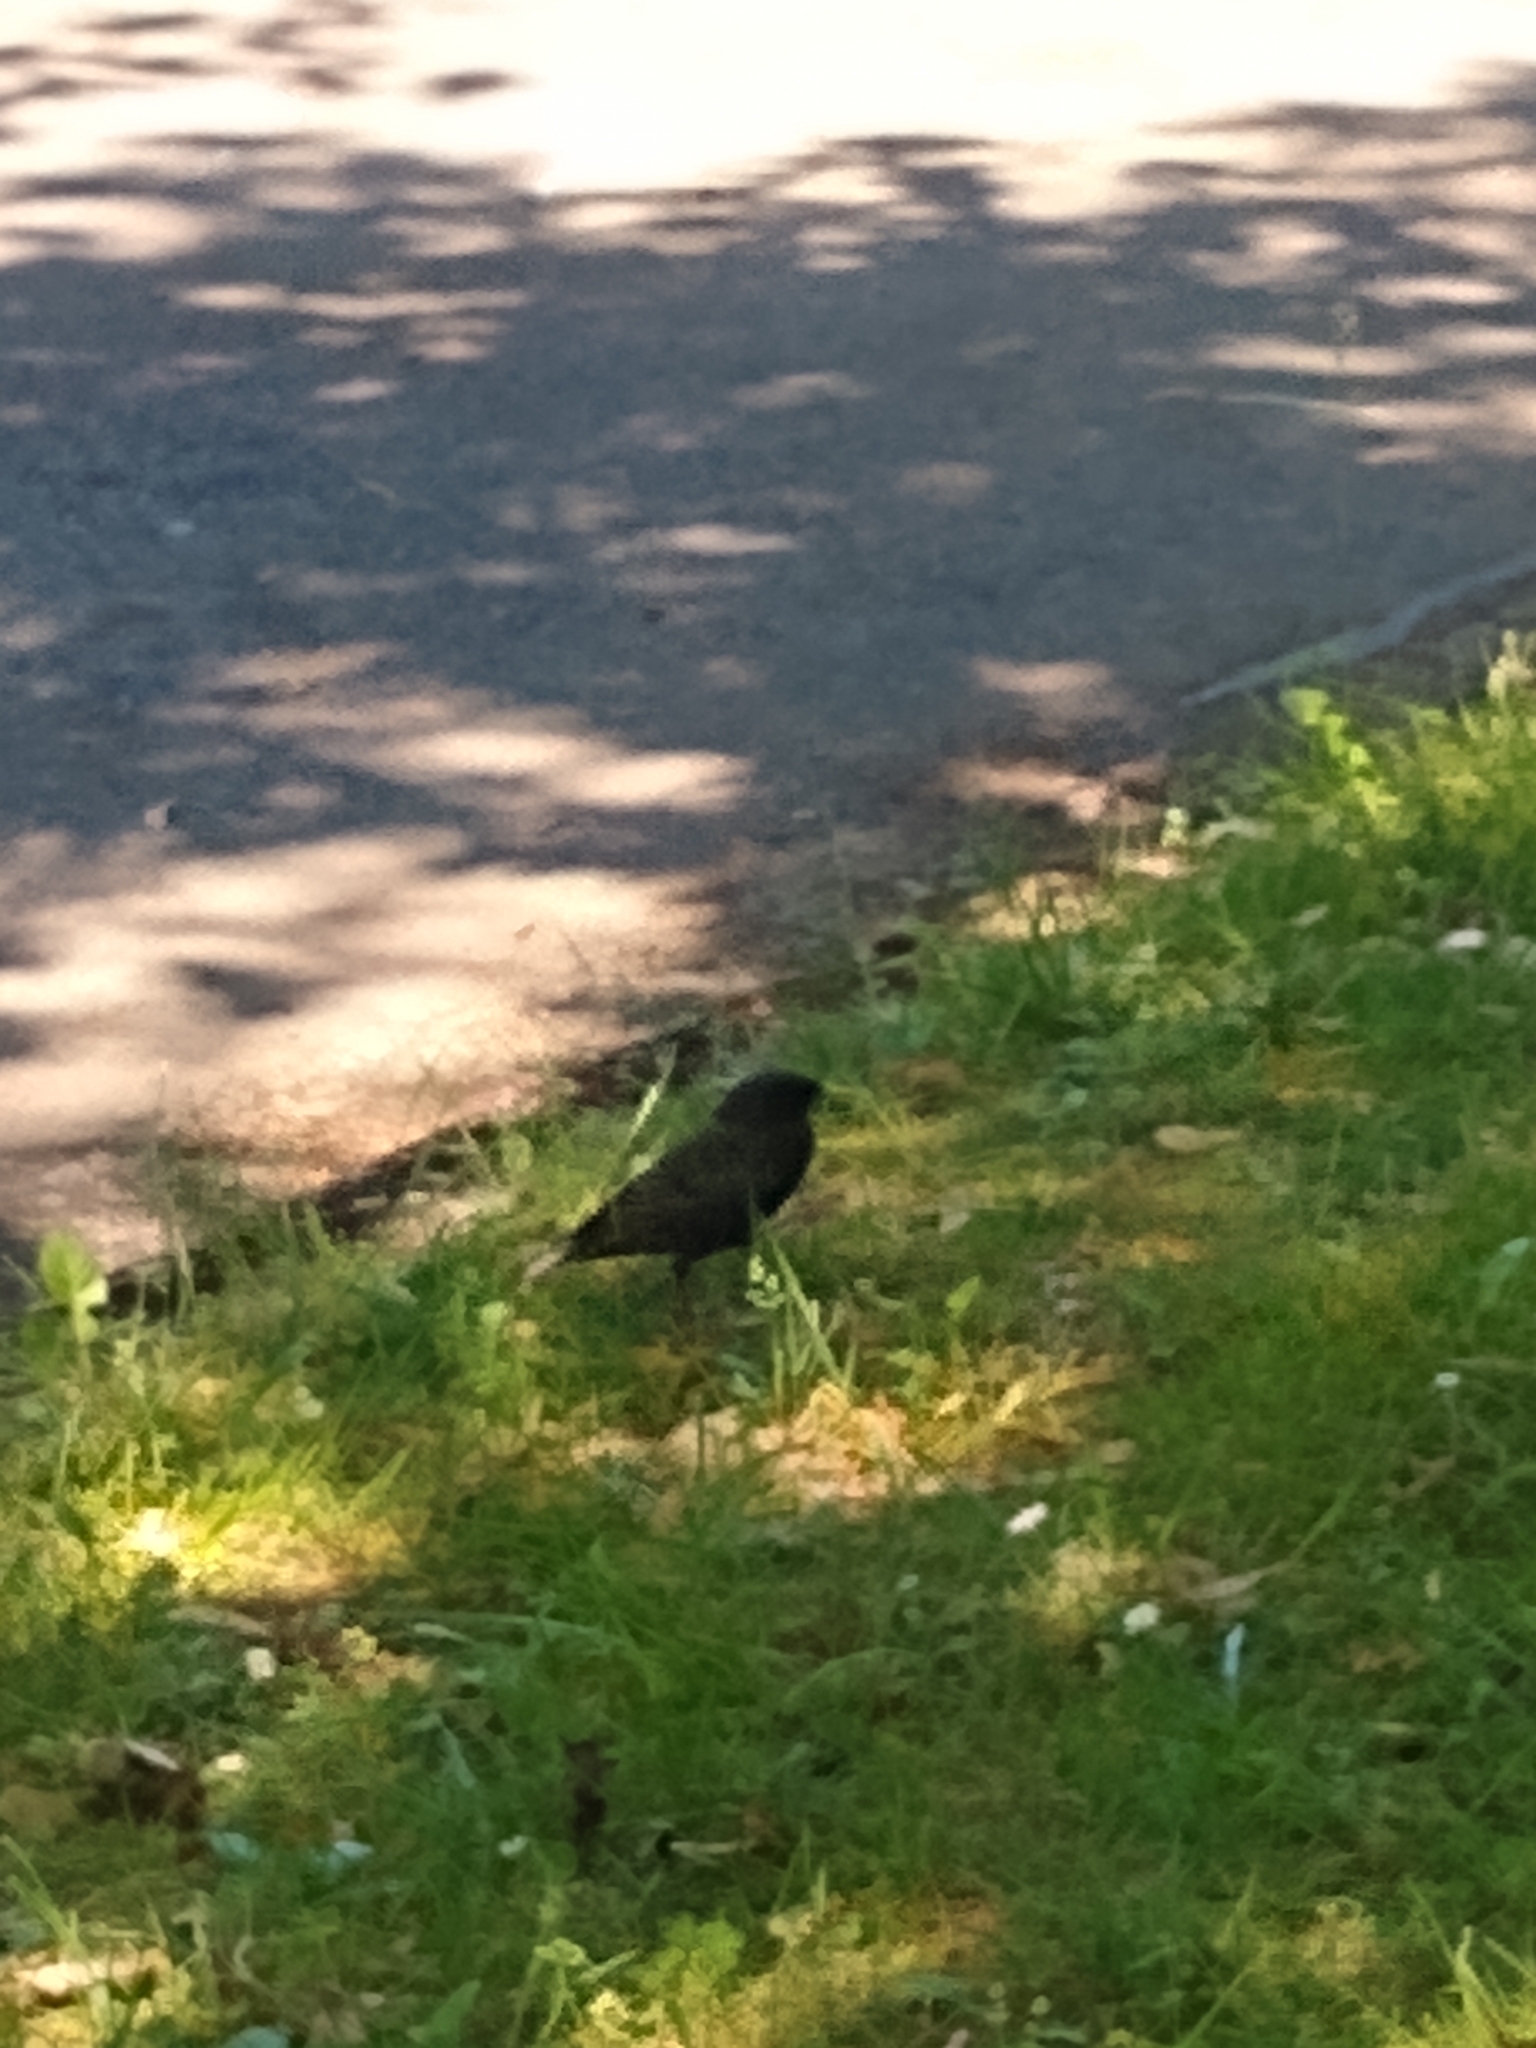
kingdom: Animalia
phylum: Chordata
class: Aves
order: Passeriformes
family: Sturnidae
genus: Sturnus
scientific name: Sturnus vulgaris
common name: Common starling
